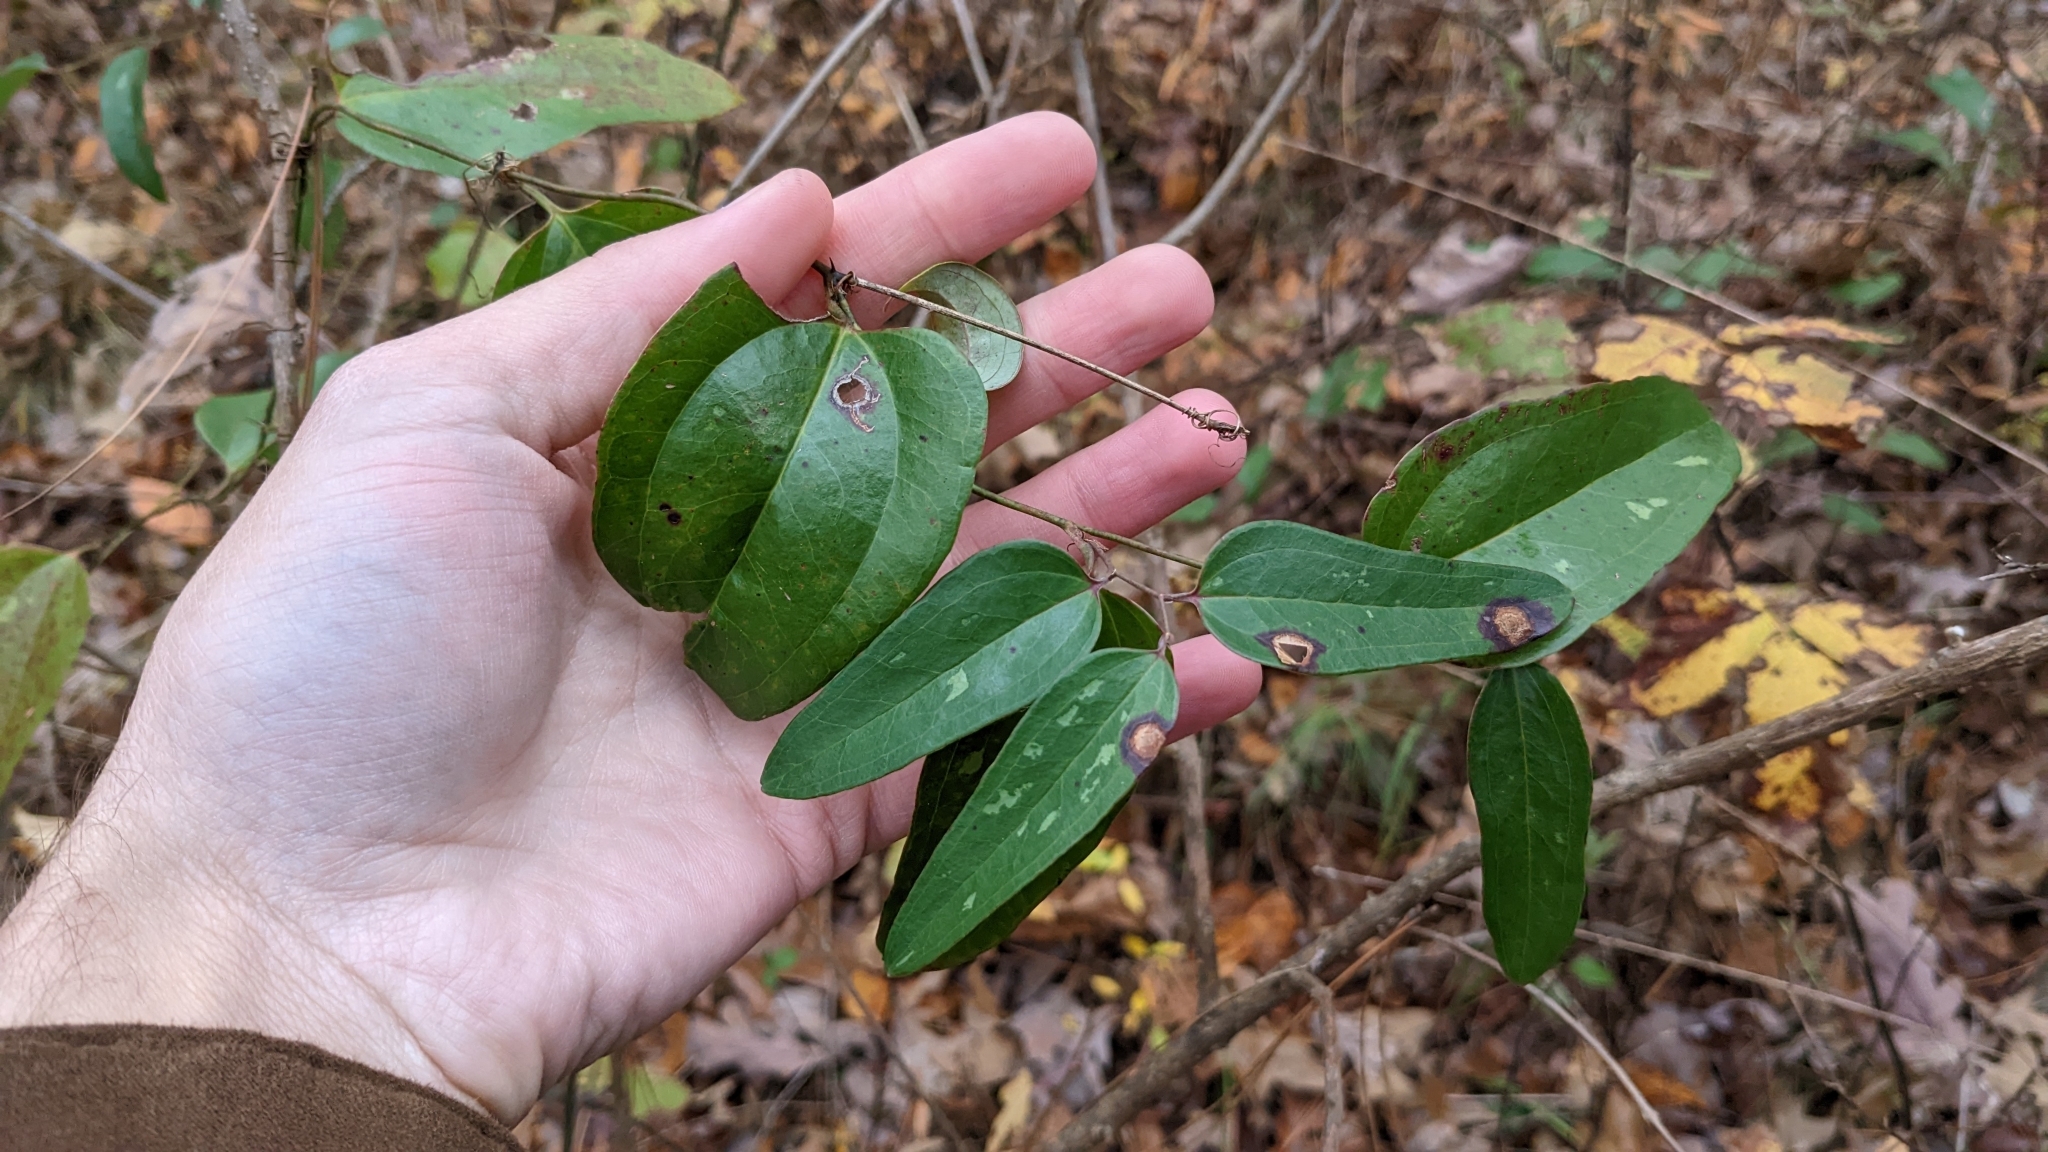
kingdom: Plantae
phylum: Tracheophyta
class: Liliopsida
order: Liliales
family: Smilacaceae
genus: Smilax
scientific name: Smilax glauca
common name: Cat greenbrier
